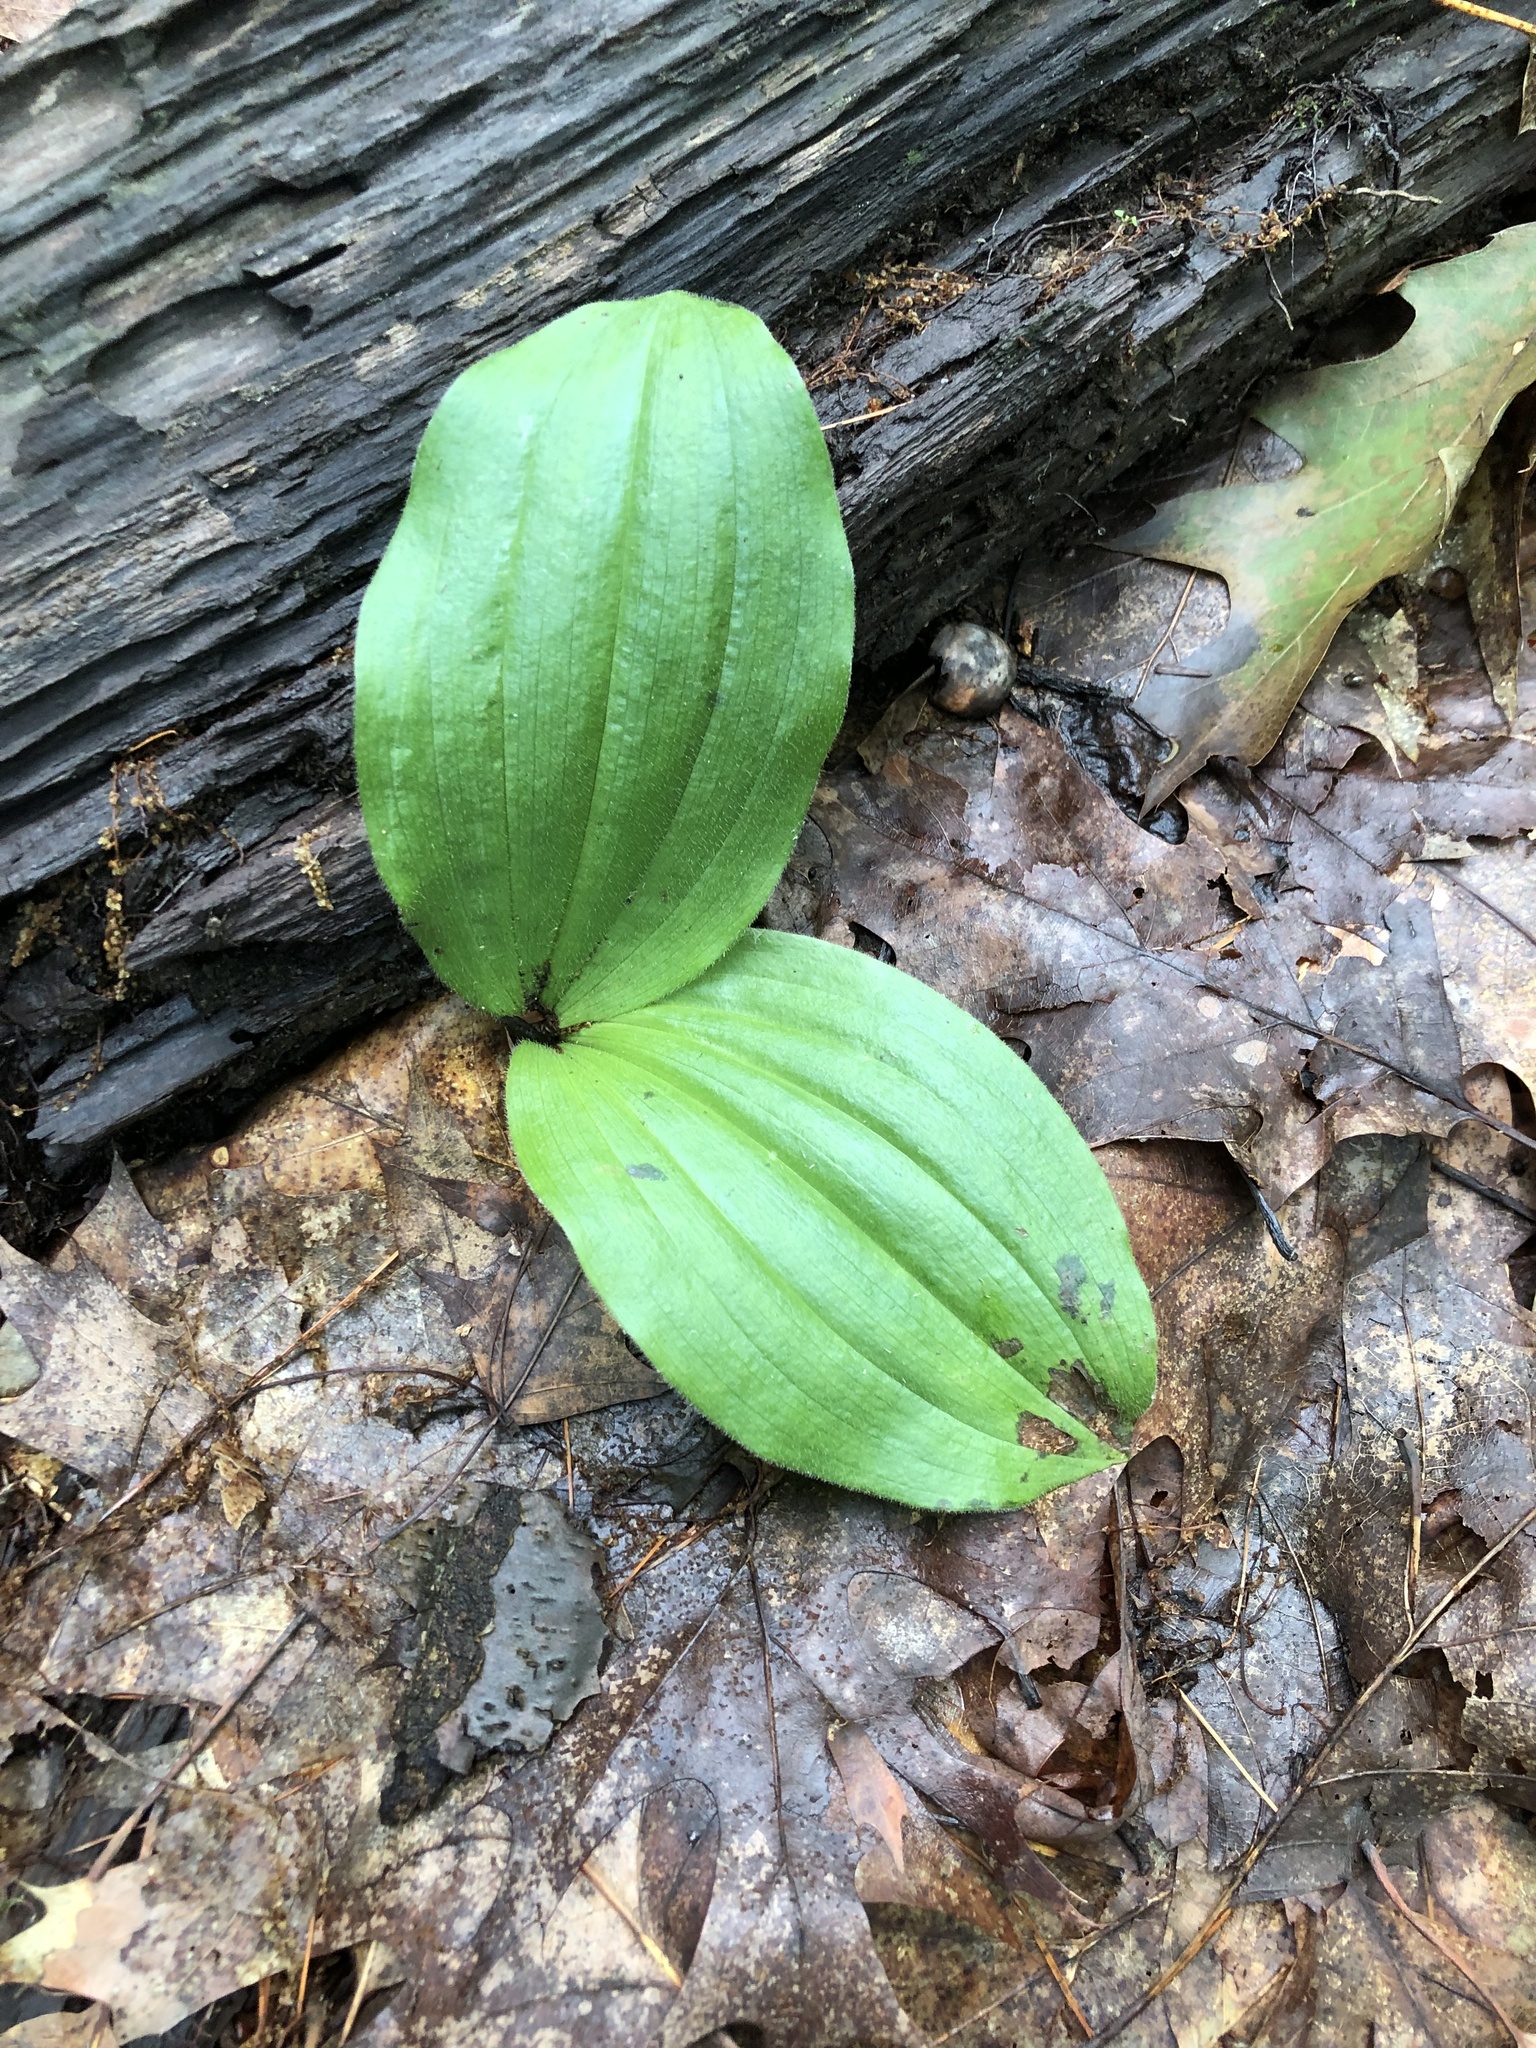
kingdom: Plantae
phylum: Tracheophyta
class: Liliopsida
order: Asparagales
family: Orchidaceae
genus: Cypripedium
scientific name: Cypripedium acaule
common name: Pink lady's-slipper
